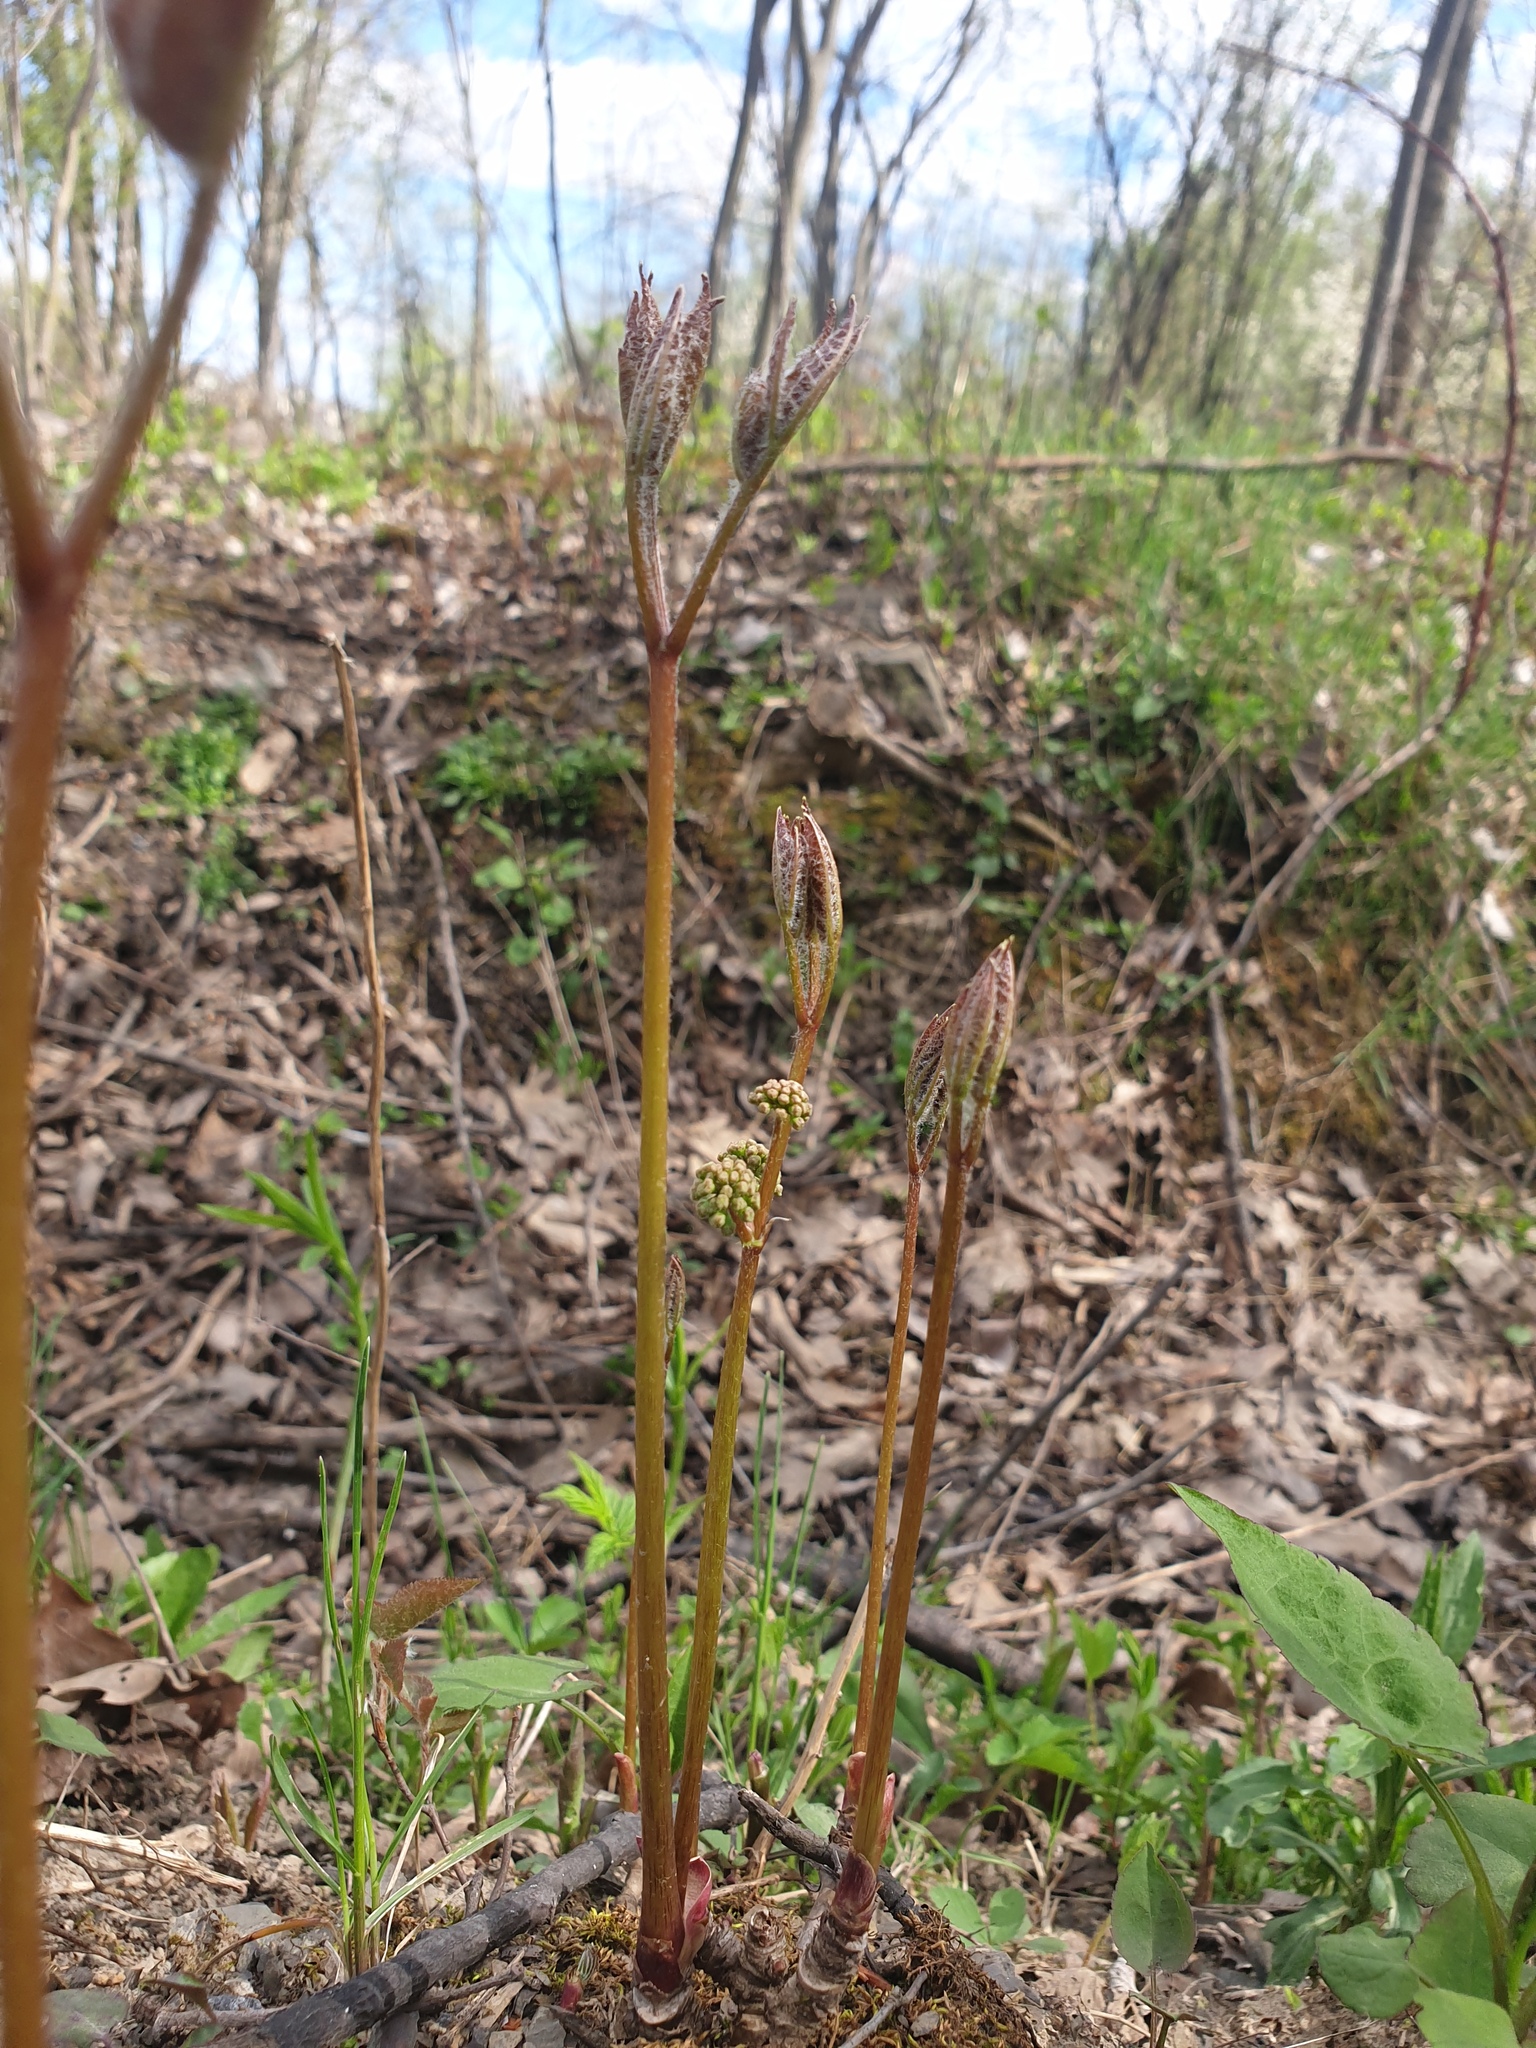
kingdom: Plantae
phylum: Tracheophyta
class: Magnoliopsida
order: Apiales
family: Araliaceae
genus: Aralia
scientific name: Aralia nudicaulis
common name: Wild sarsaparilla
